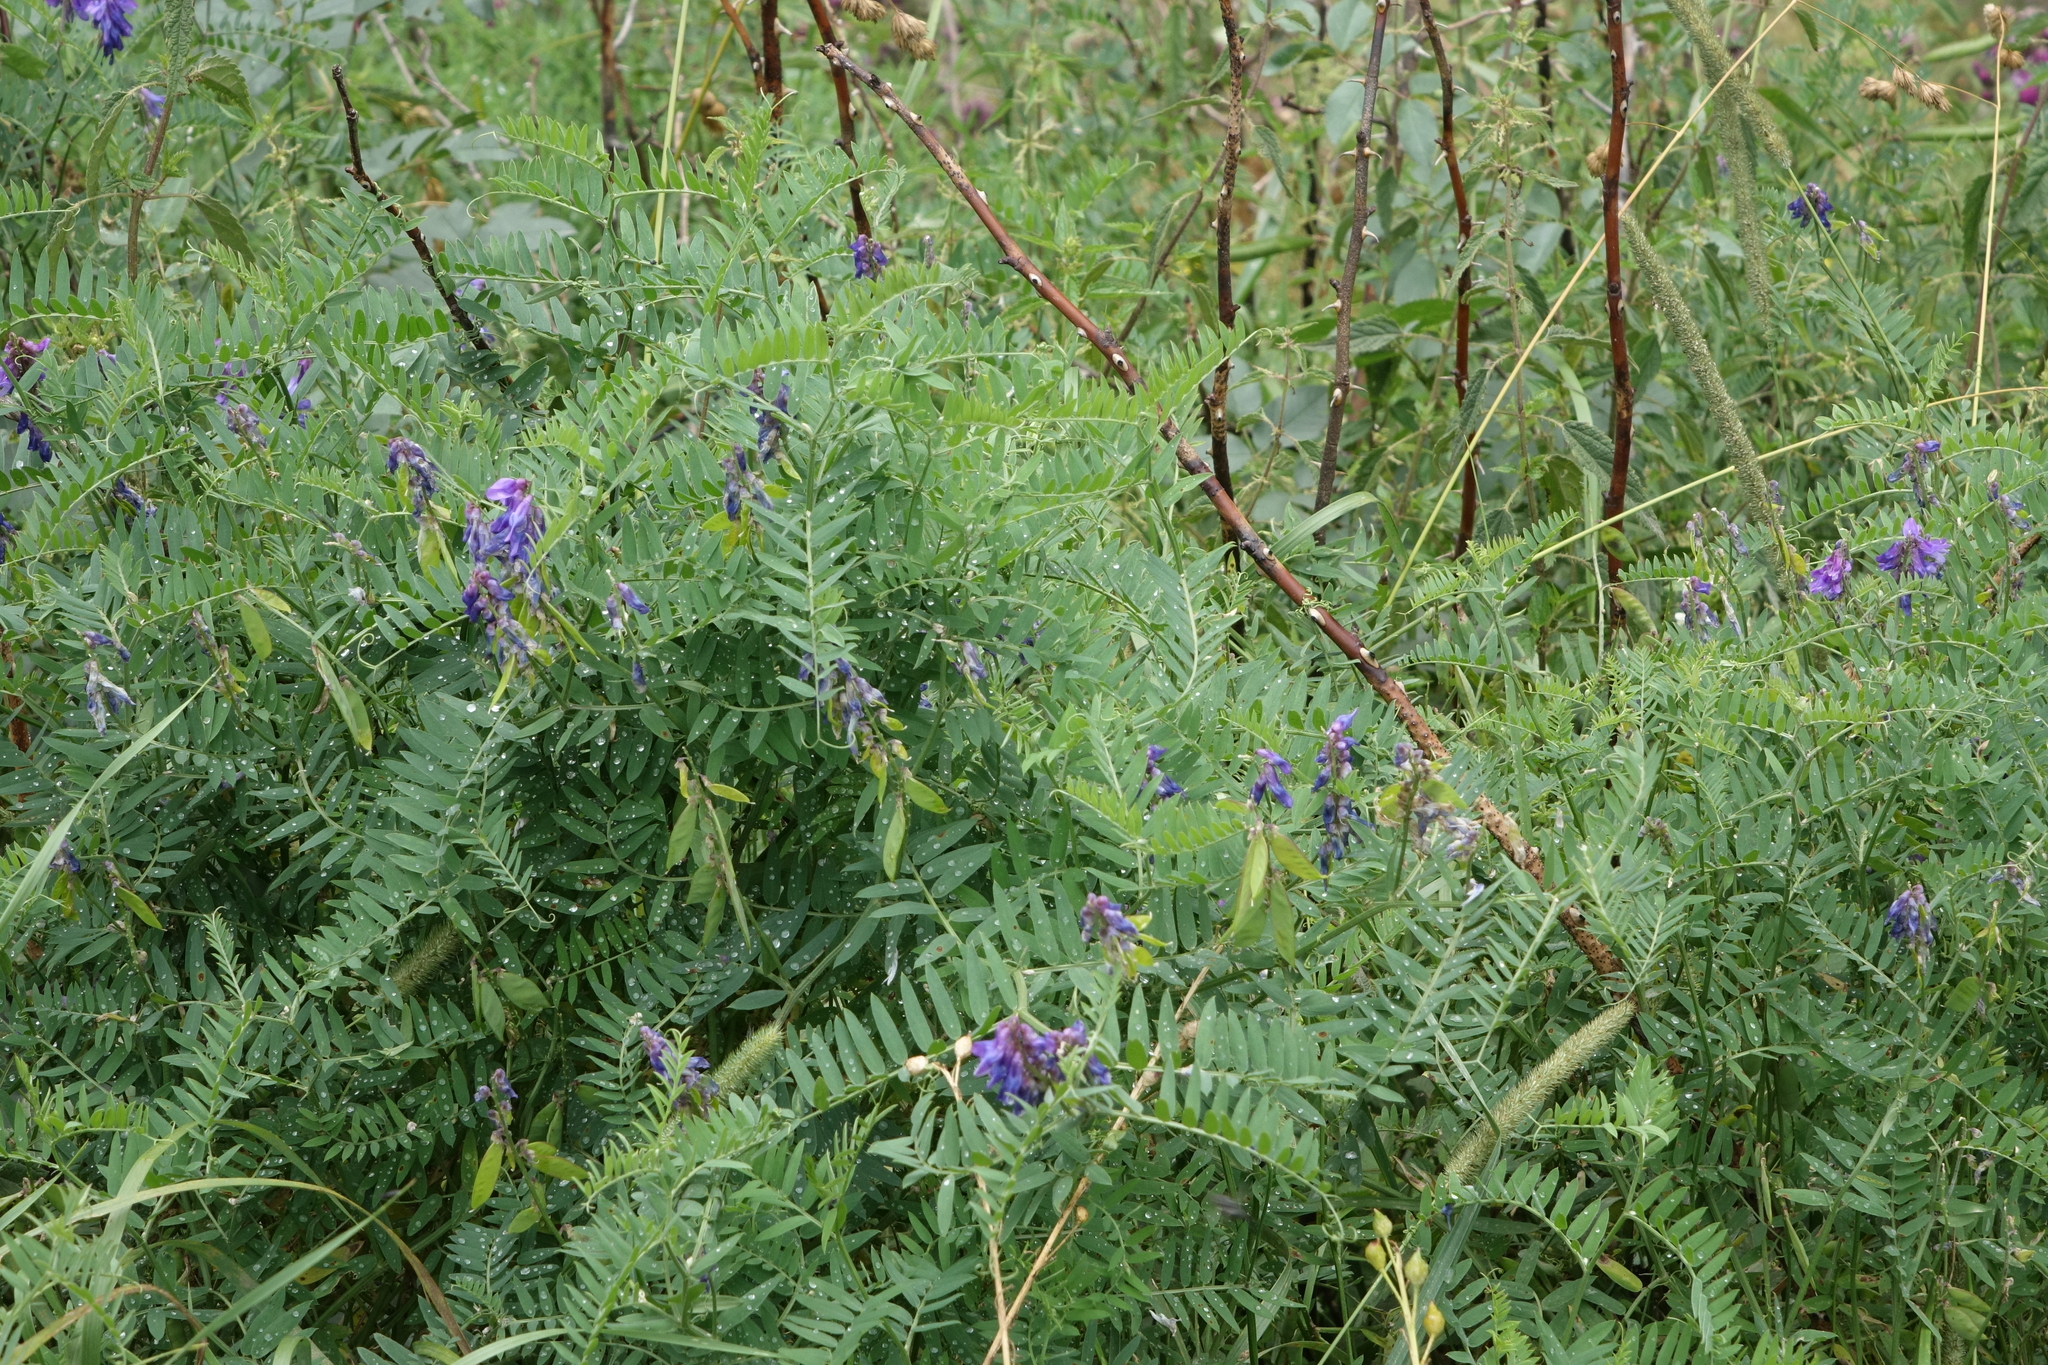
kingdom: Plantae
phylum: Tracheophyta
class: Magnoliopsida
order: Fabales
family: Fabaceae
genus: Vicia
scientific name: Vicia cracca
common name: Bird vetch
